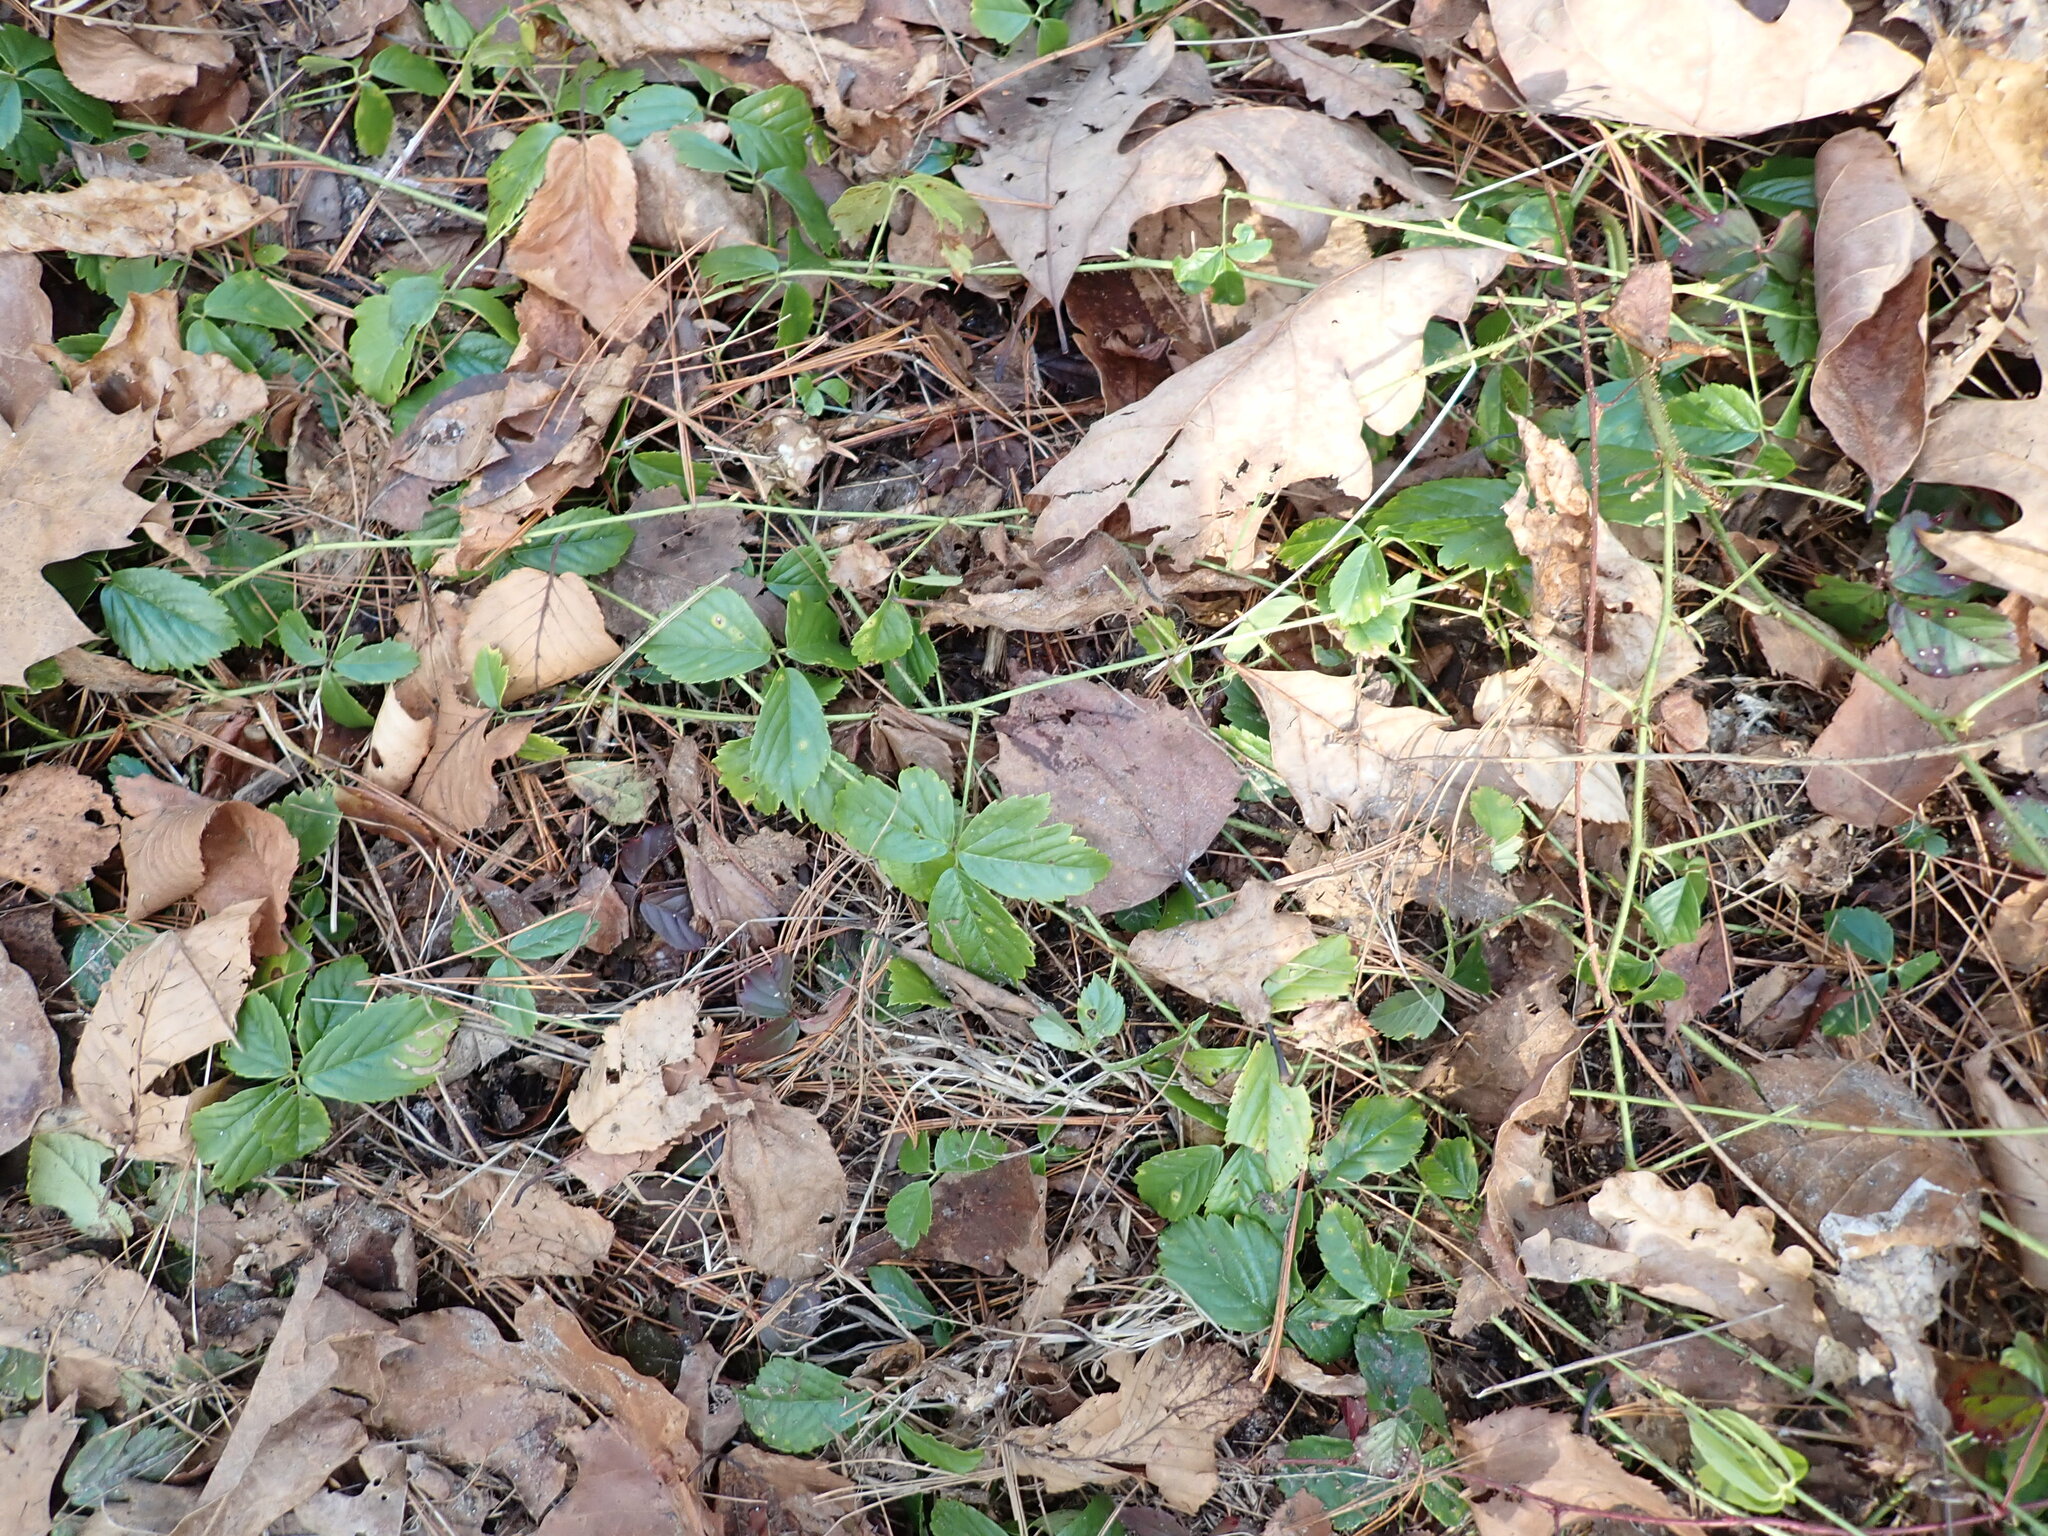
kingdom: Plantae
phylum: Tracheophyta
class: Magnoliopsida
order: Rosales
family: Rosaceae
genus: Rubus
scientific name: Rubus hispidus
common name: Running blackberry
